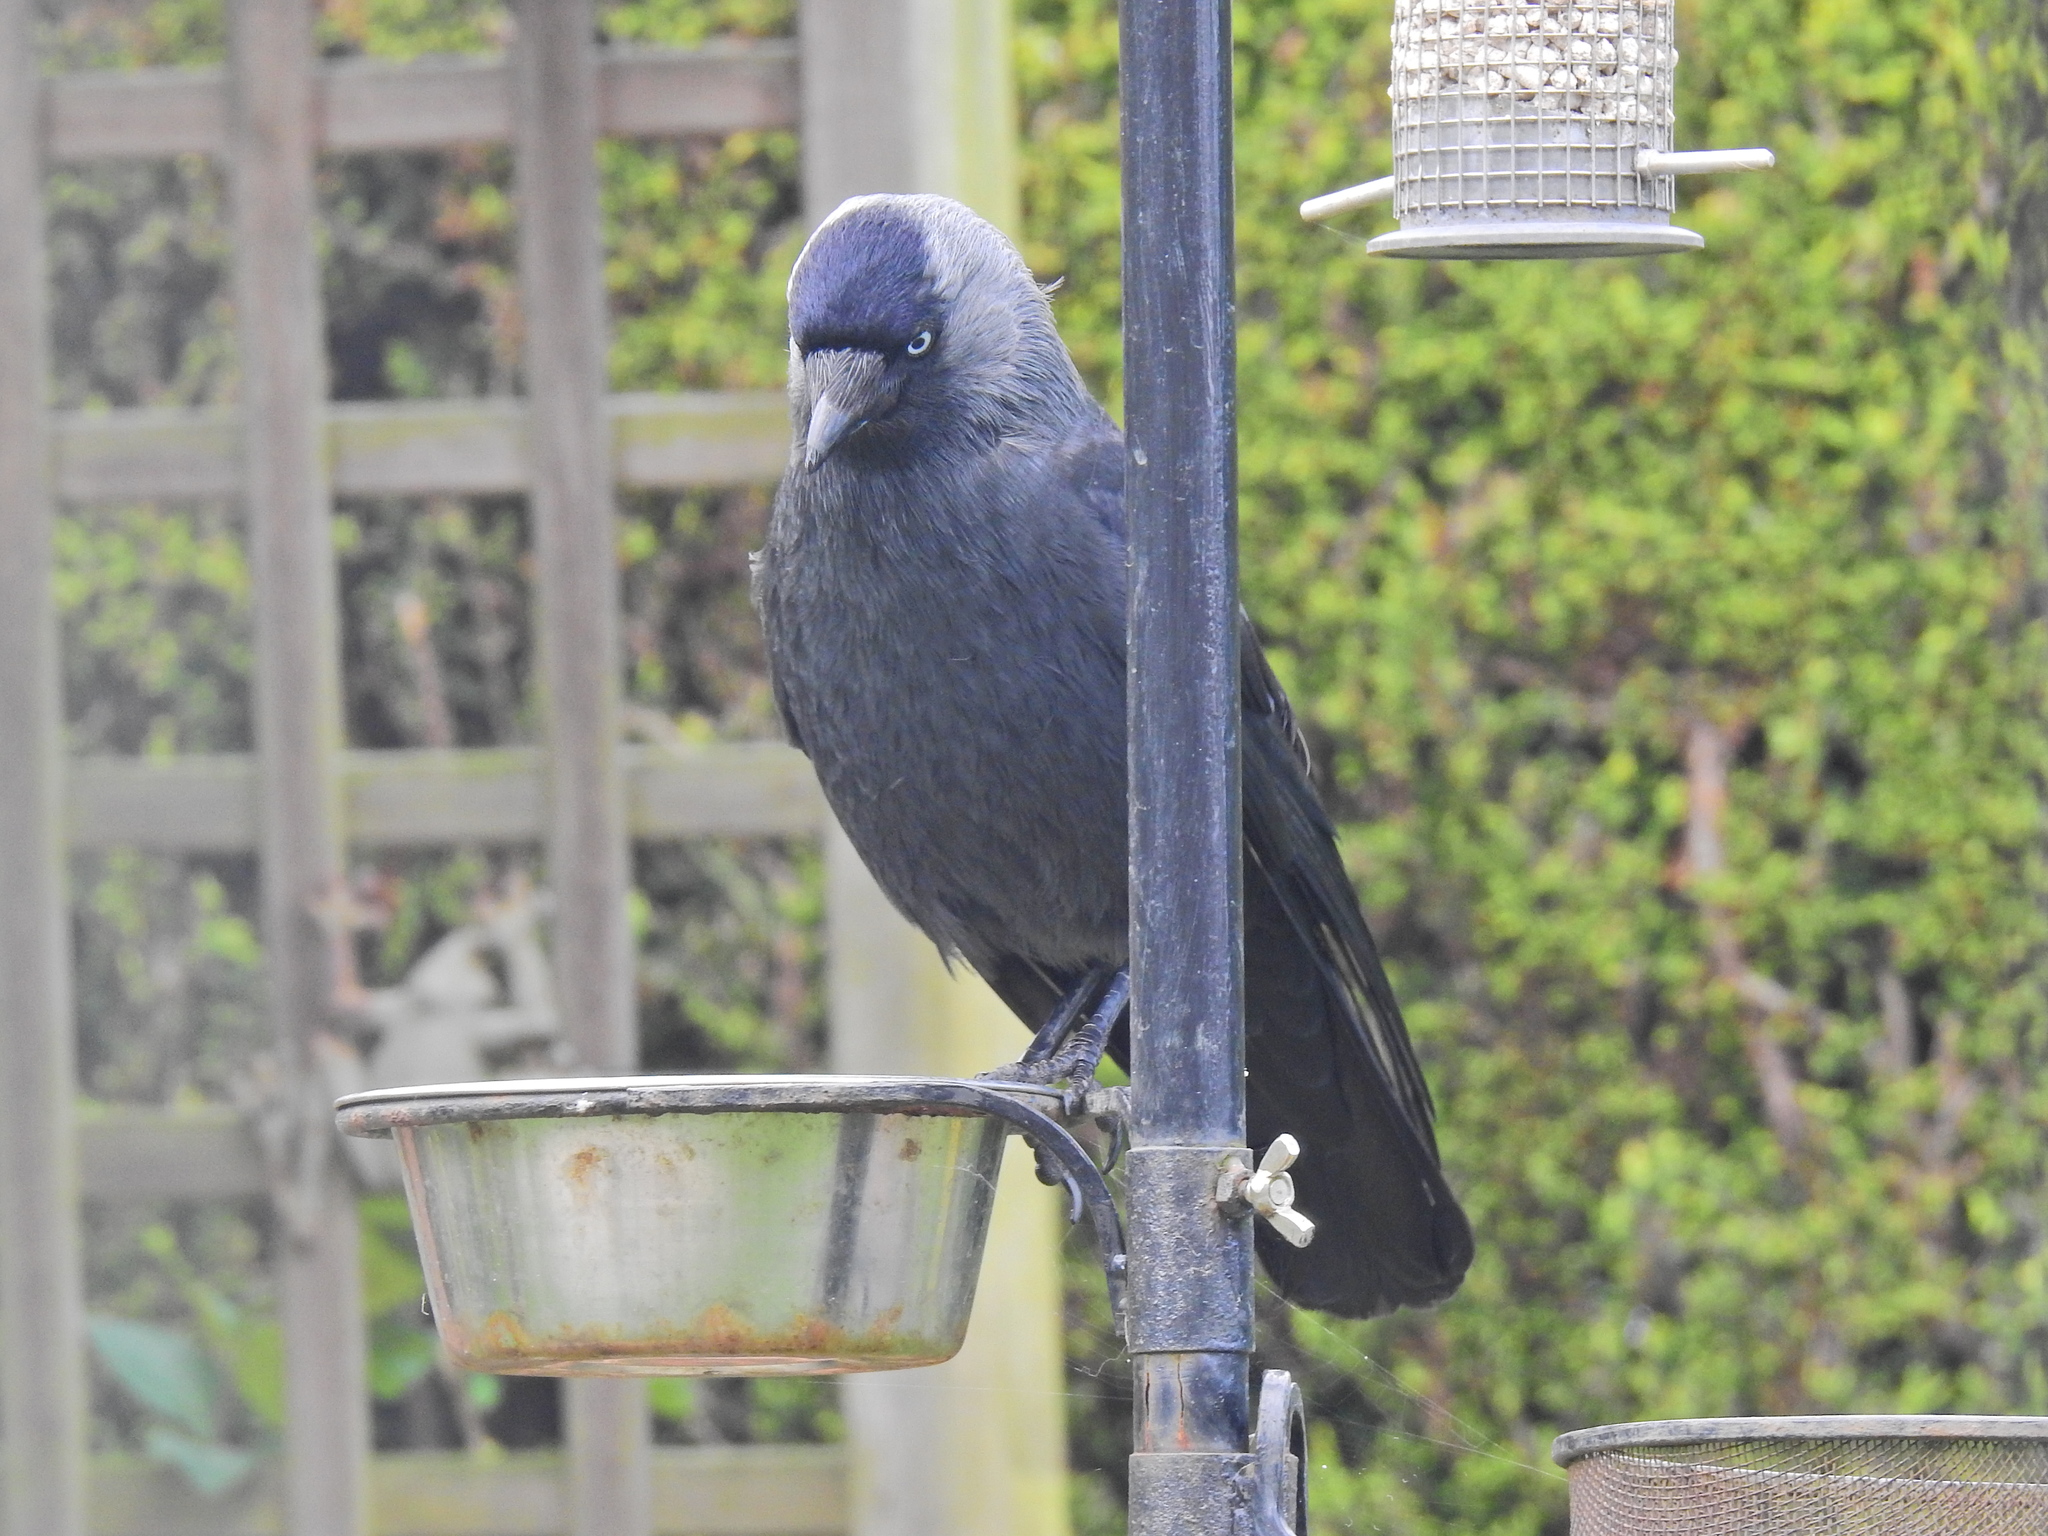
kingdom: Animalia
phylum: Chordata
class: Aves
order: Passeriformes
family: Corvidae
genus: Coloeus
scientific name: Coloeus monedula
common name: Western jackdaw
